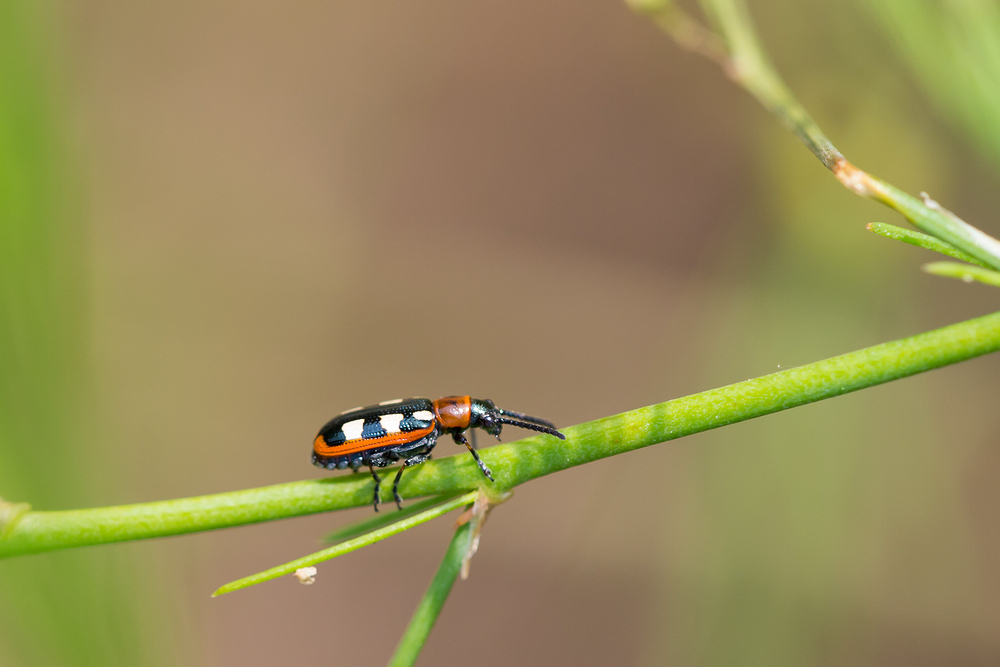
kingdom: Animalia
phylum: Arthropoda
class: Insecta
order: Coleoptera
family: Chrysomelidae
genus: Crioceris
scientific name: Crioceris asparagi
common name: Asparagus beetle
